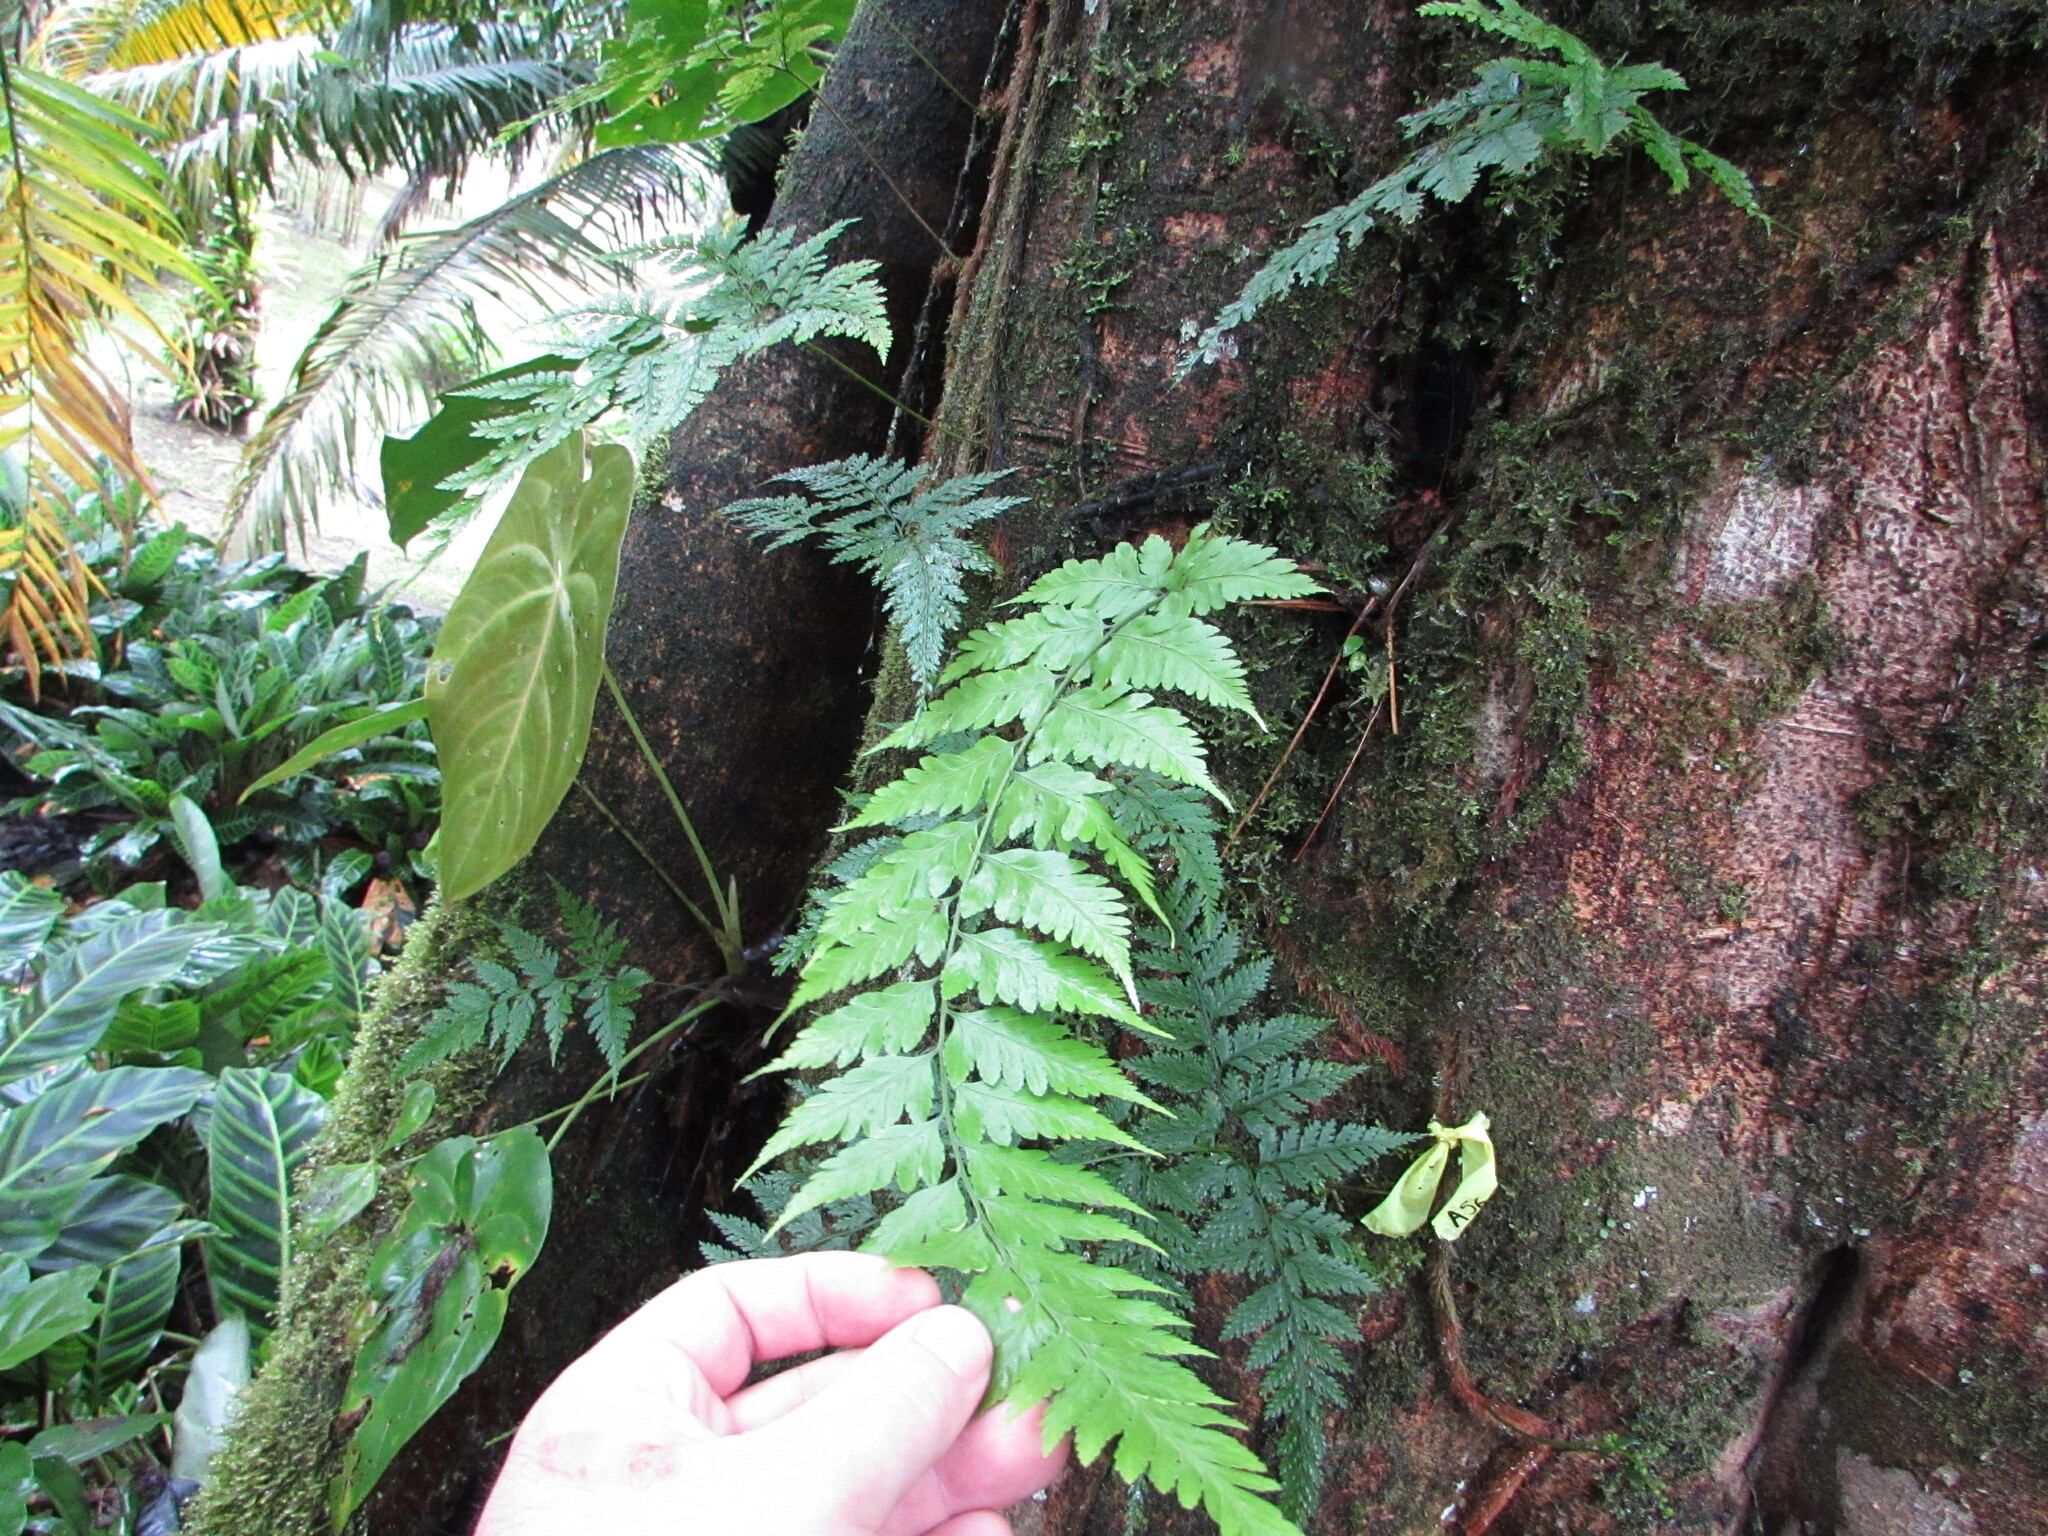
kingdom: Plantae
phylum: Tracheophyta
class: Polypodiopsida
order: Polypodiales
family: Dryopteridaceae
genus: Dryopteris
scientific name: Dryopteris patula
